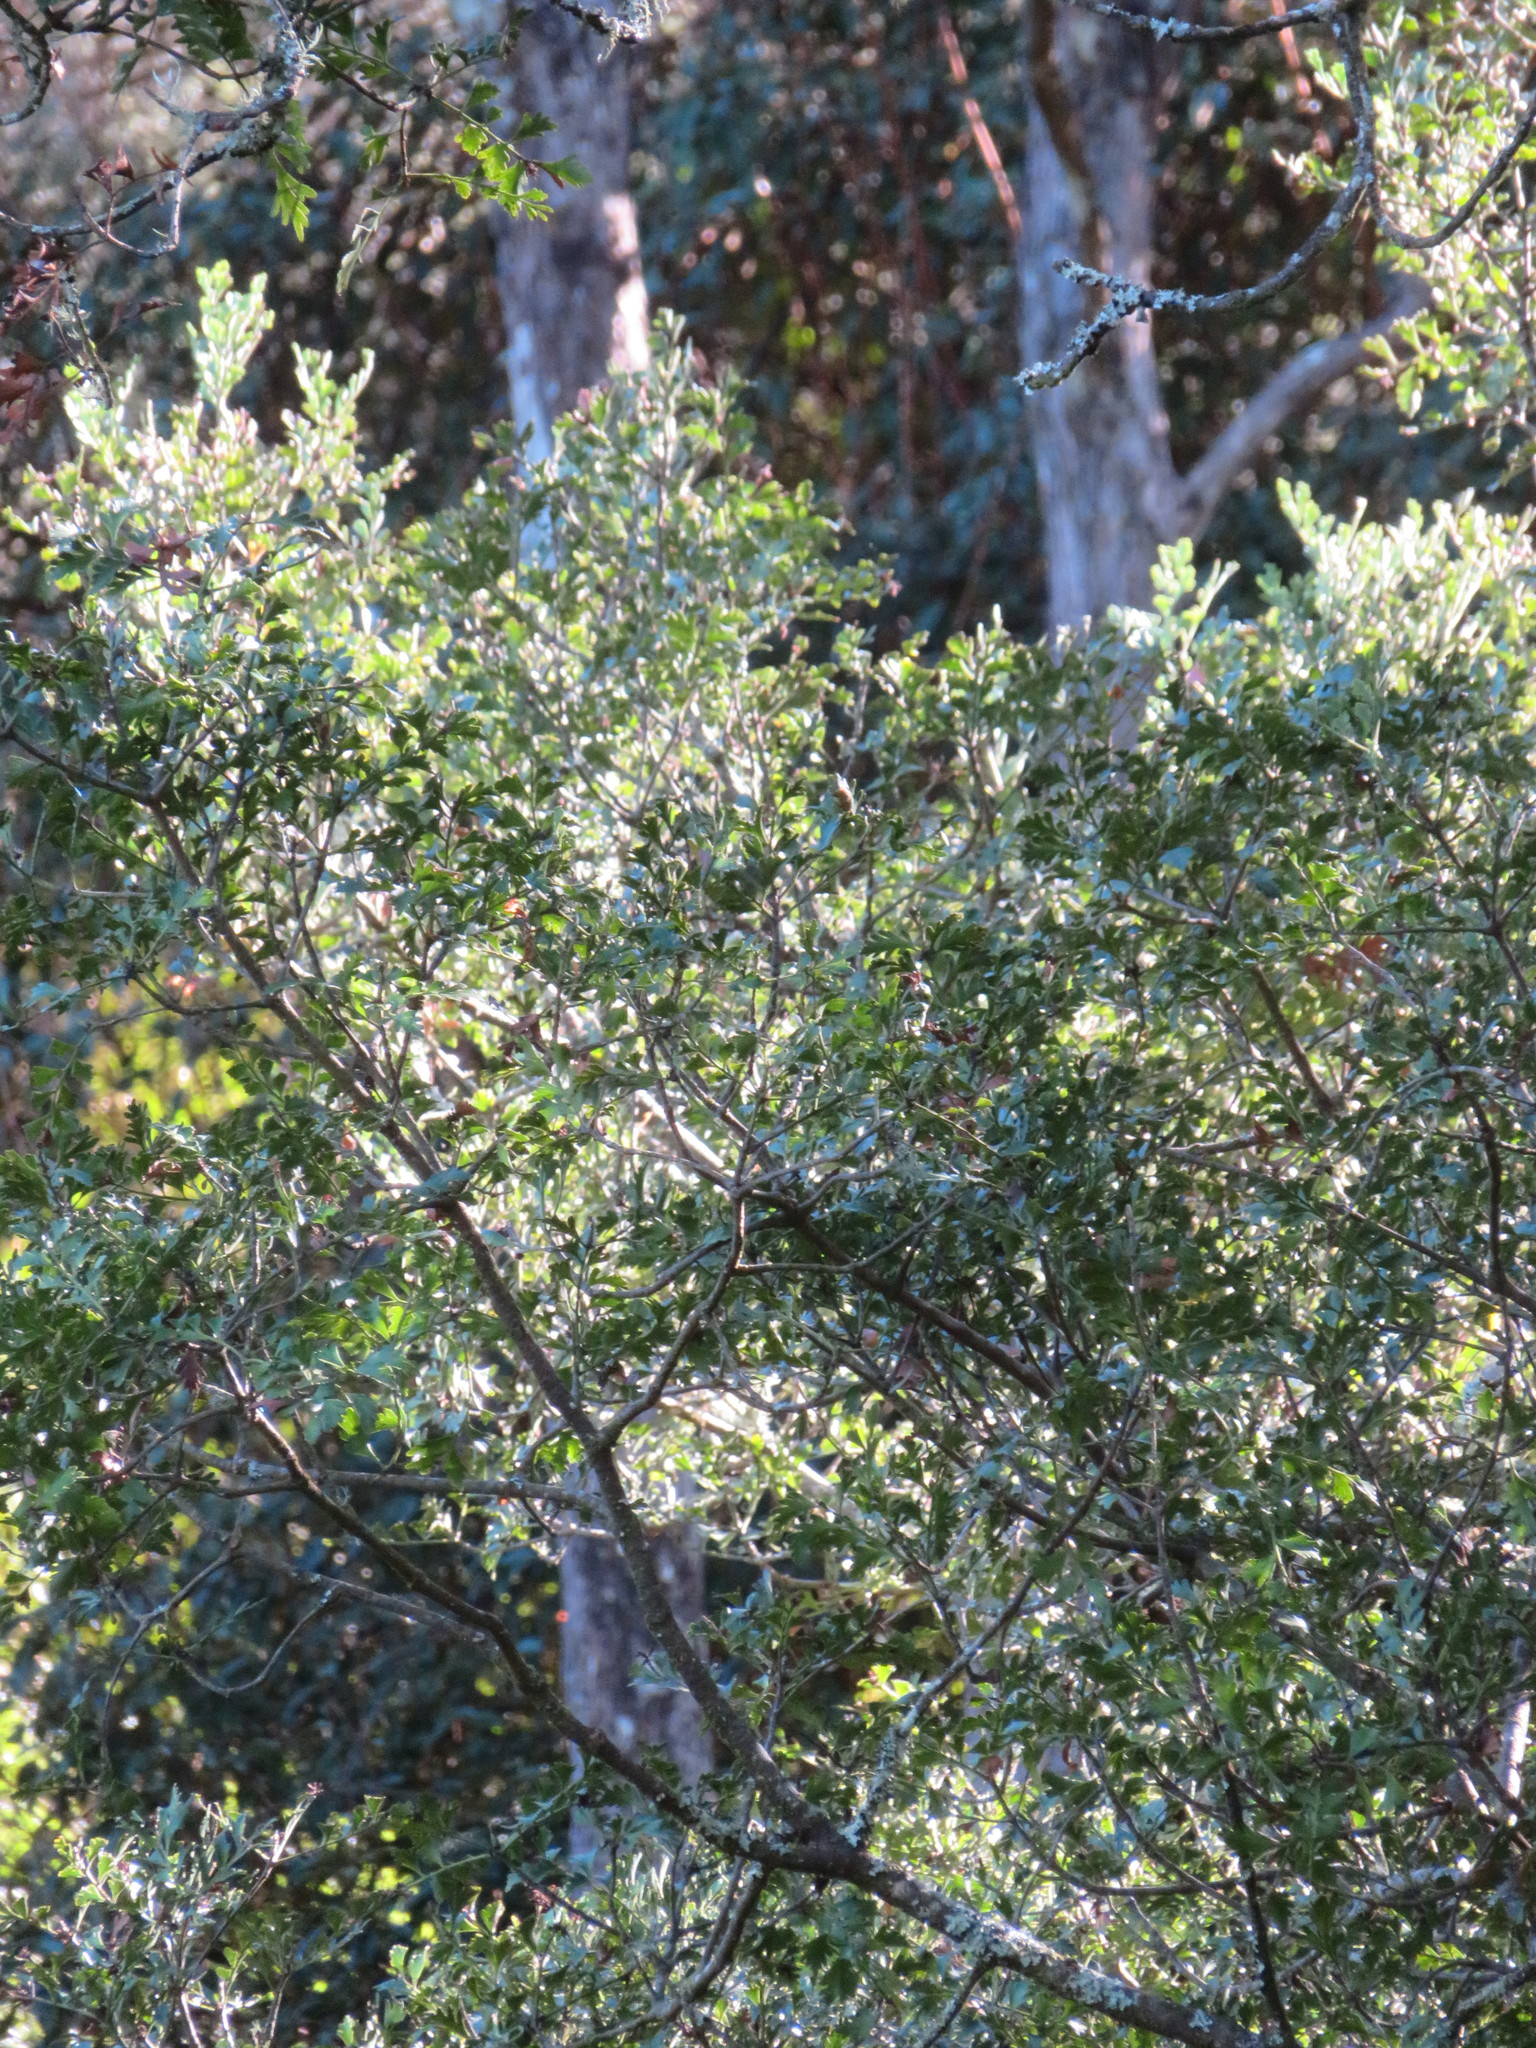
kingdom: Plantae
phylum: Tracheophyta
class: Pinopsida
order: Pinales
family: Phyllocladaceae
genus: Phyllocladus
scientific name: Phyllocladus trichomanoides
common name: Celery pine
